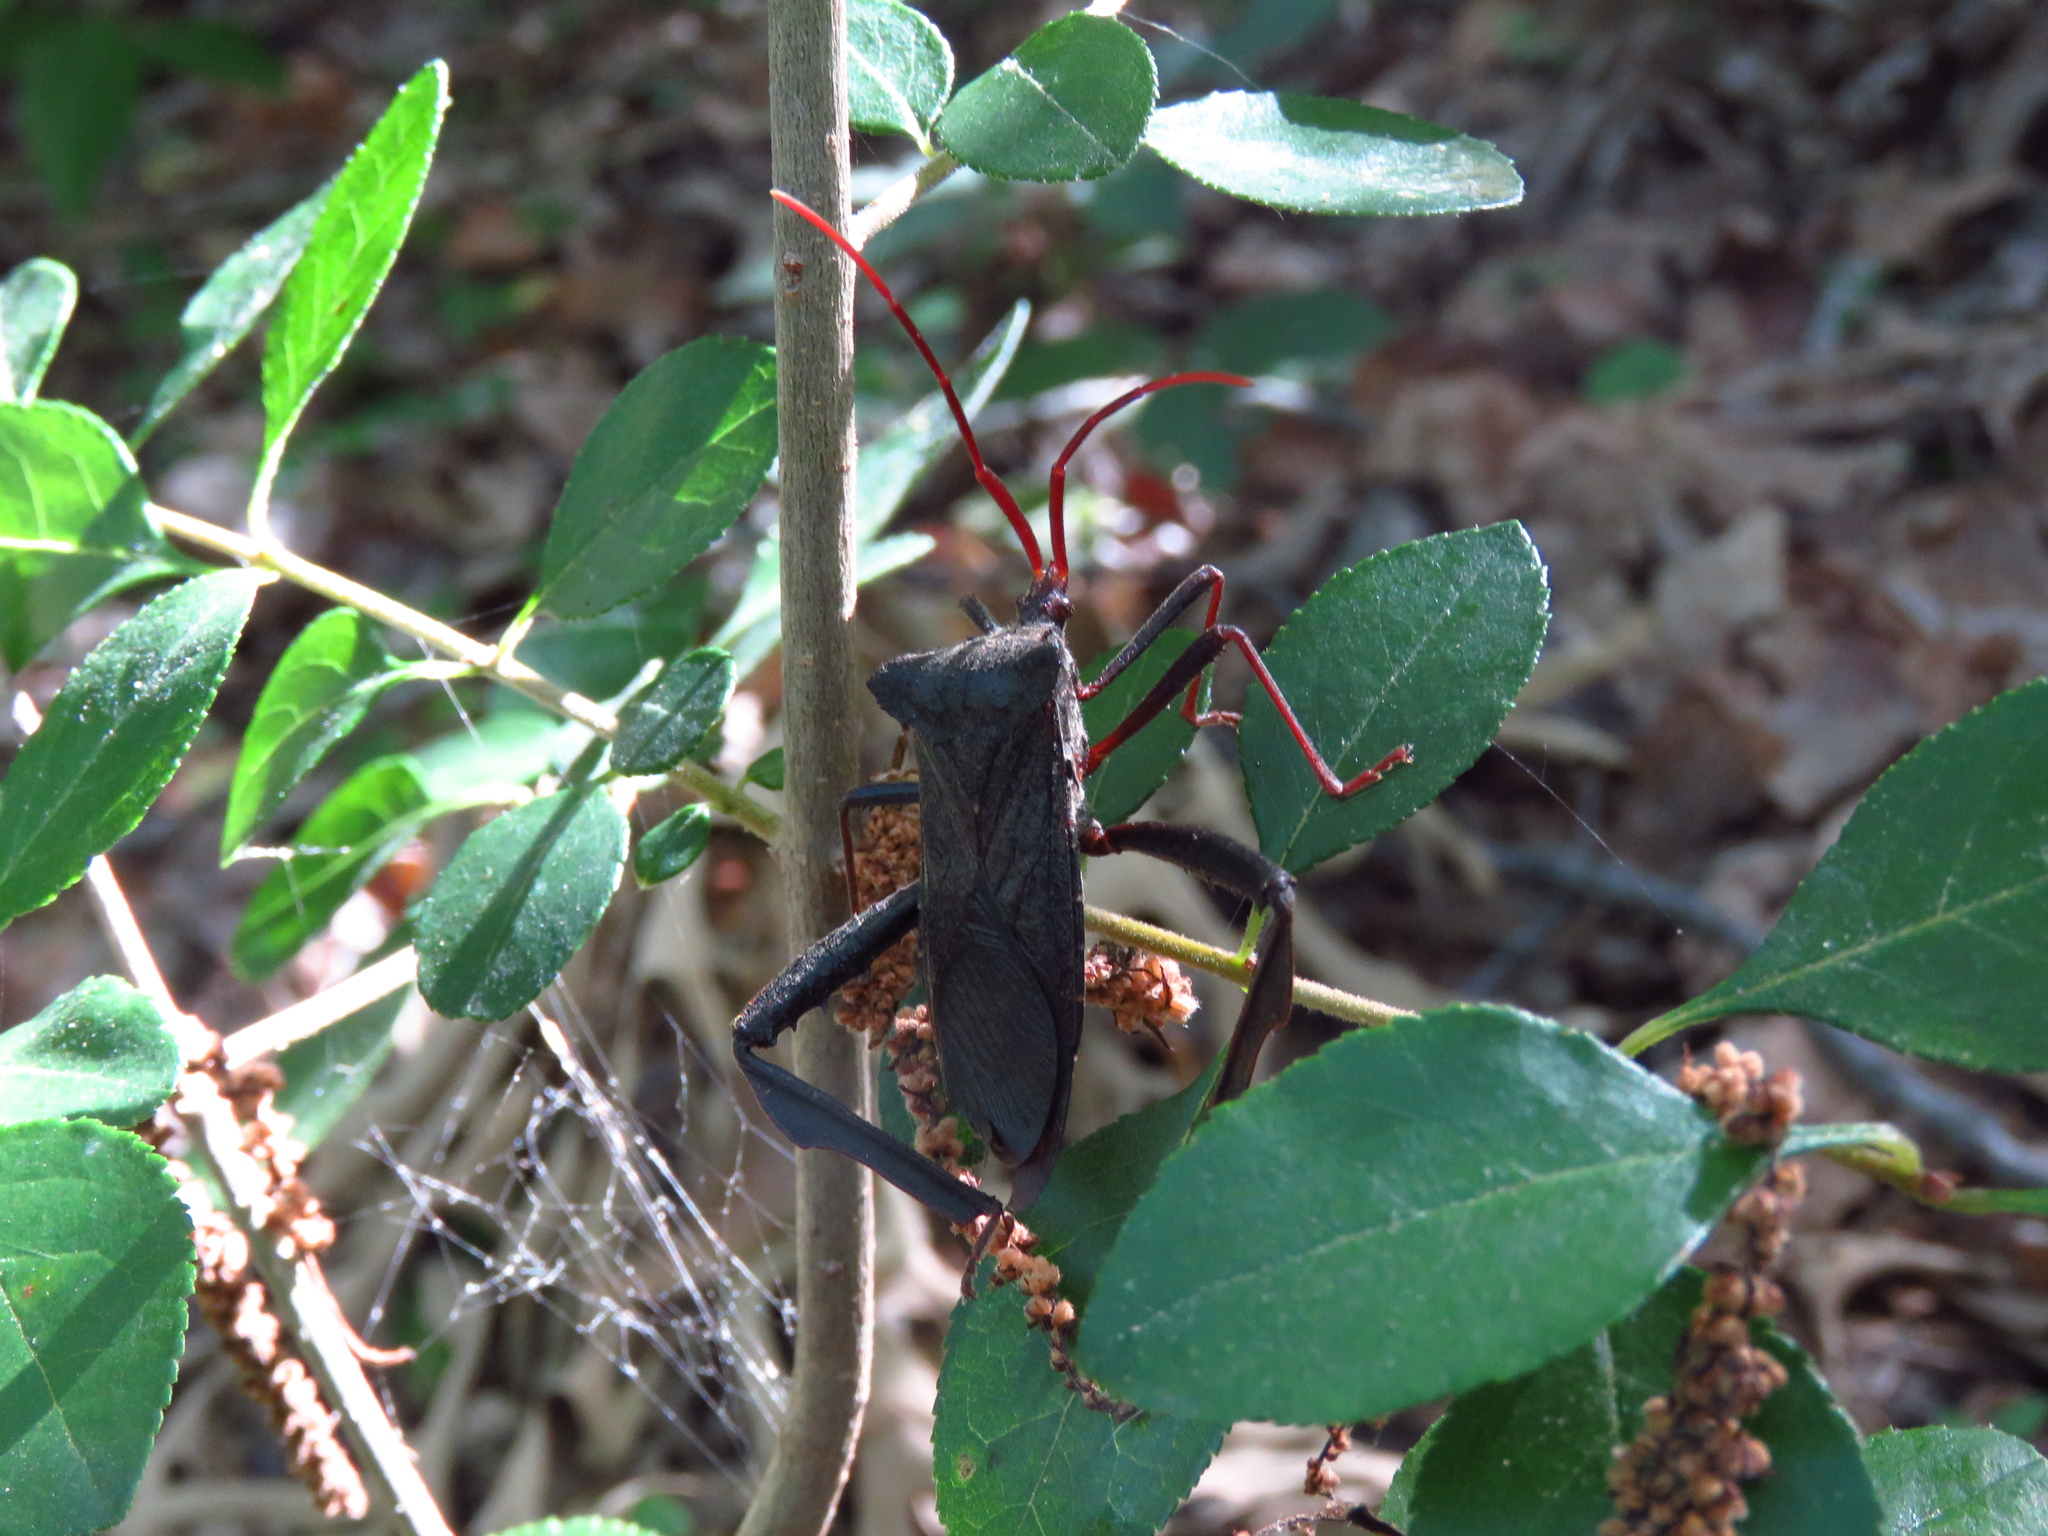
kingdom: Animalia
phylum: Arthropoda
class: Insecta
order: Hemiptera
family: Coreidae
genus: Acanthocephala
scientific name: Acanthocephala declivis
